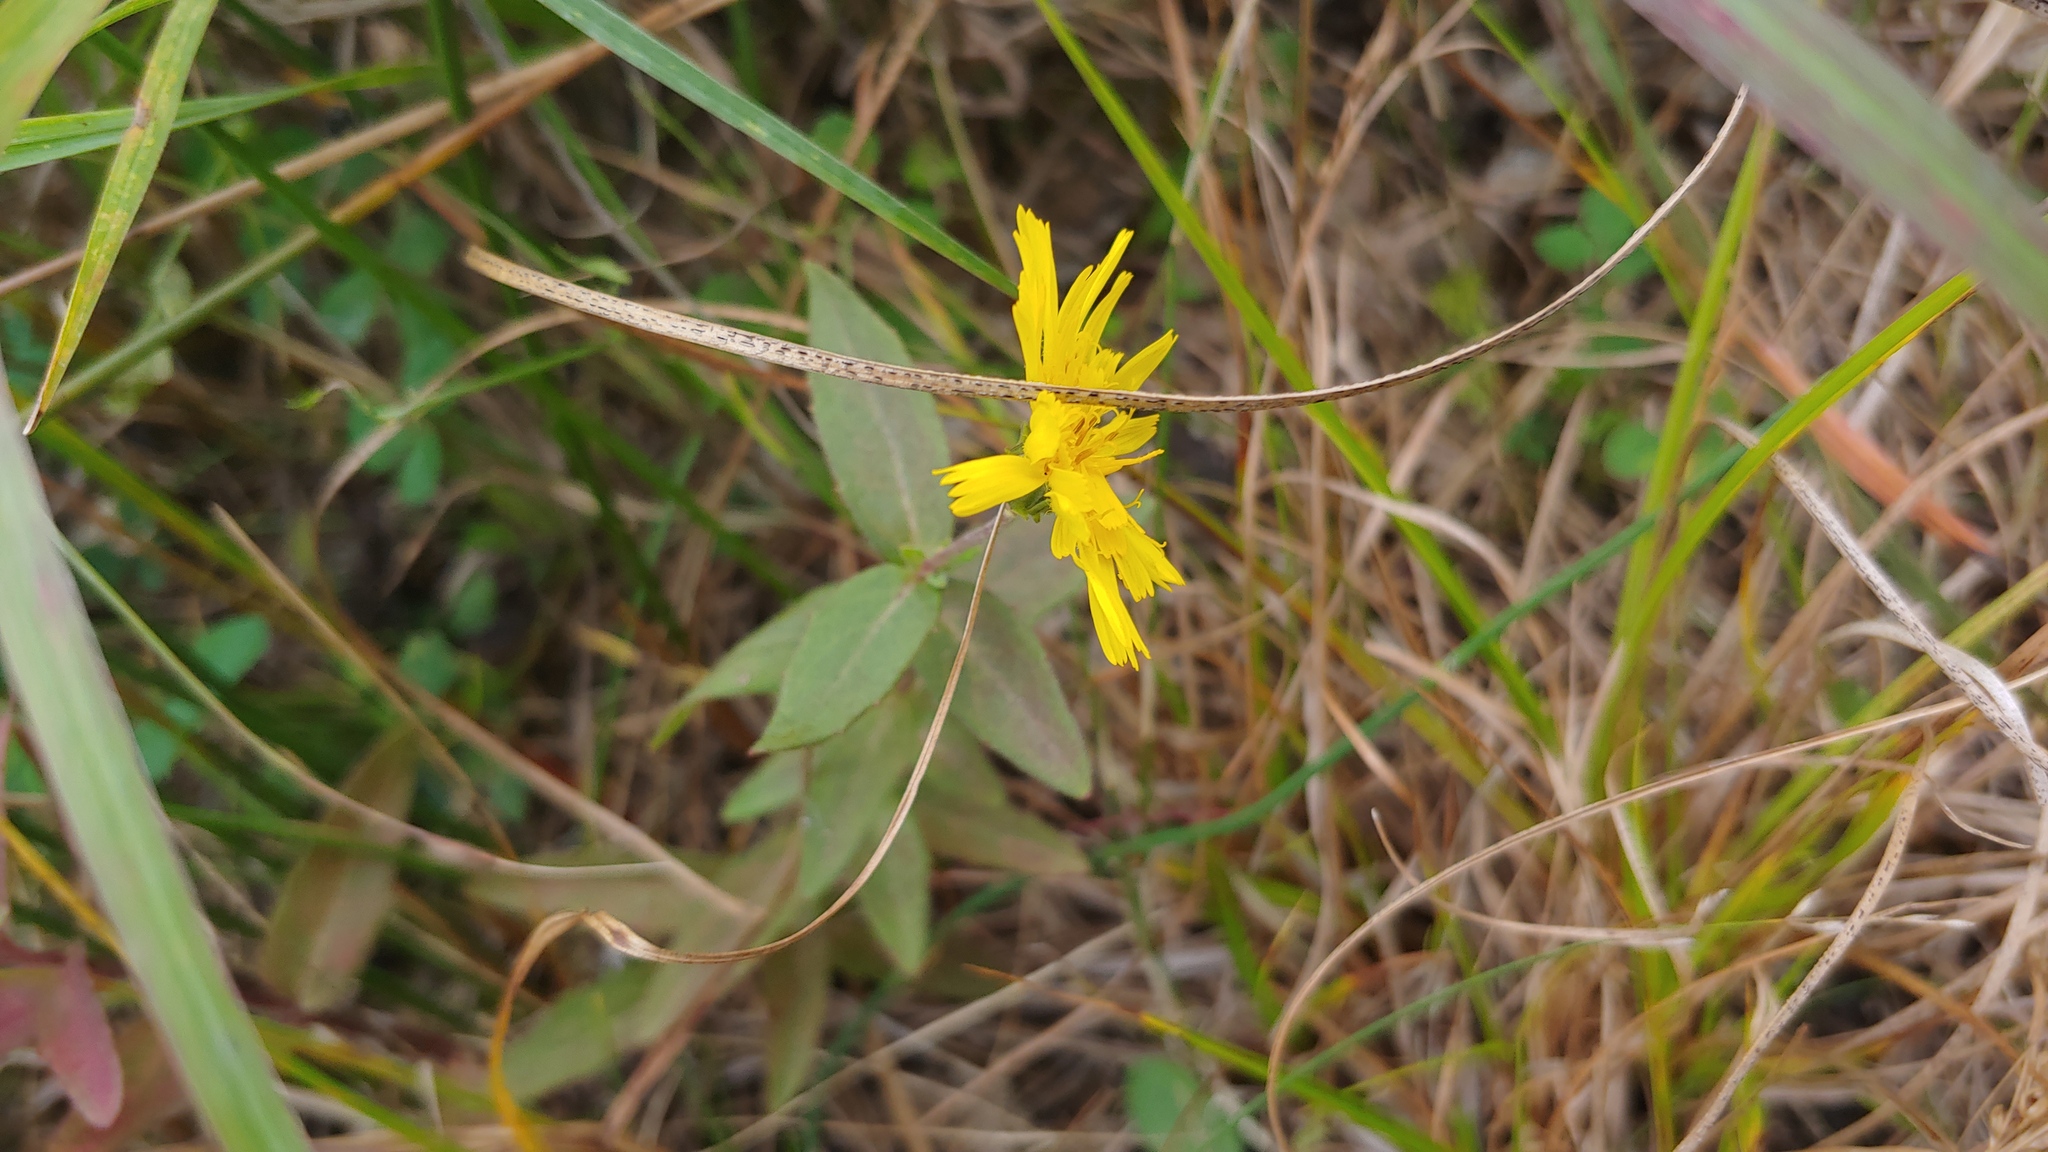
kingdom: Plantae
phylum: Tracheophyta
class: Magnoliopsida
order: Asterales
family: Asteraceae
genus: Hieracium
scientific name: Hieracium umbellatum
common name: Northern hawkweed
